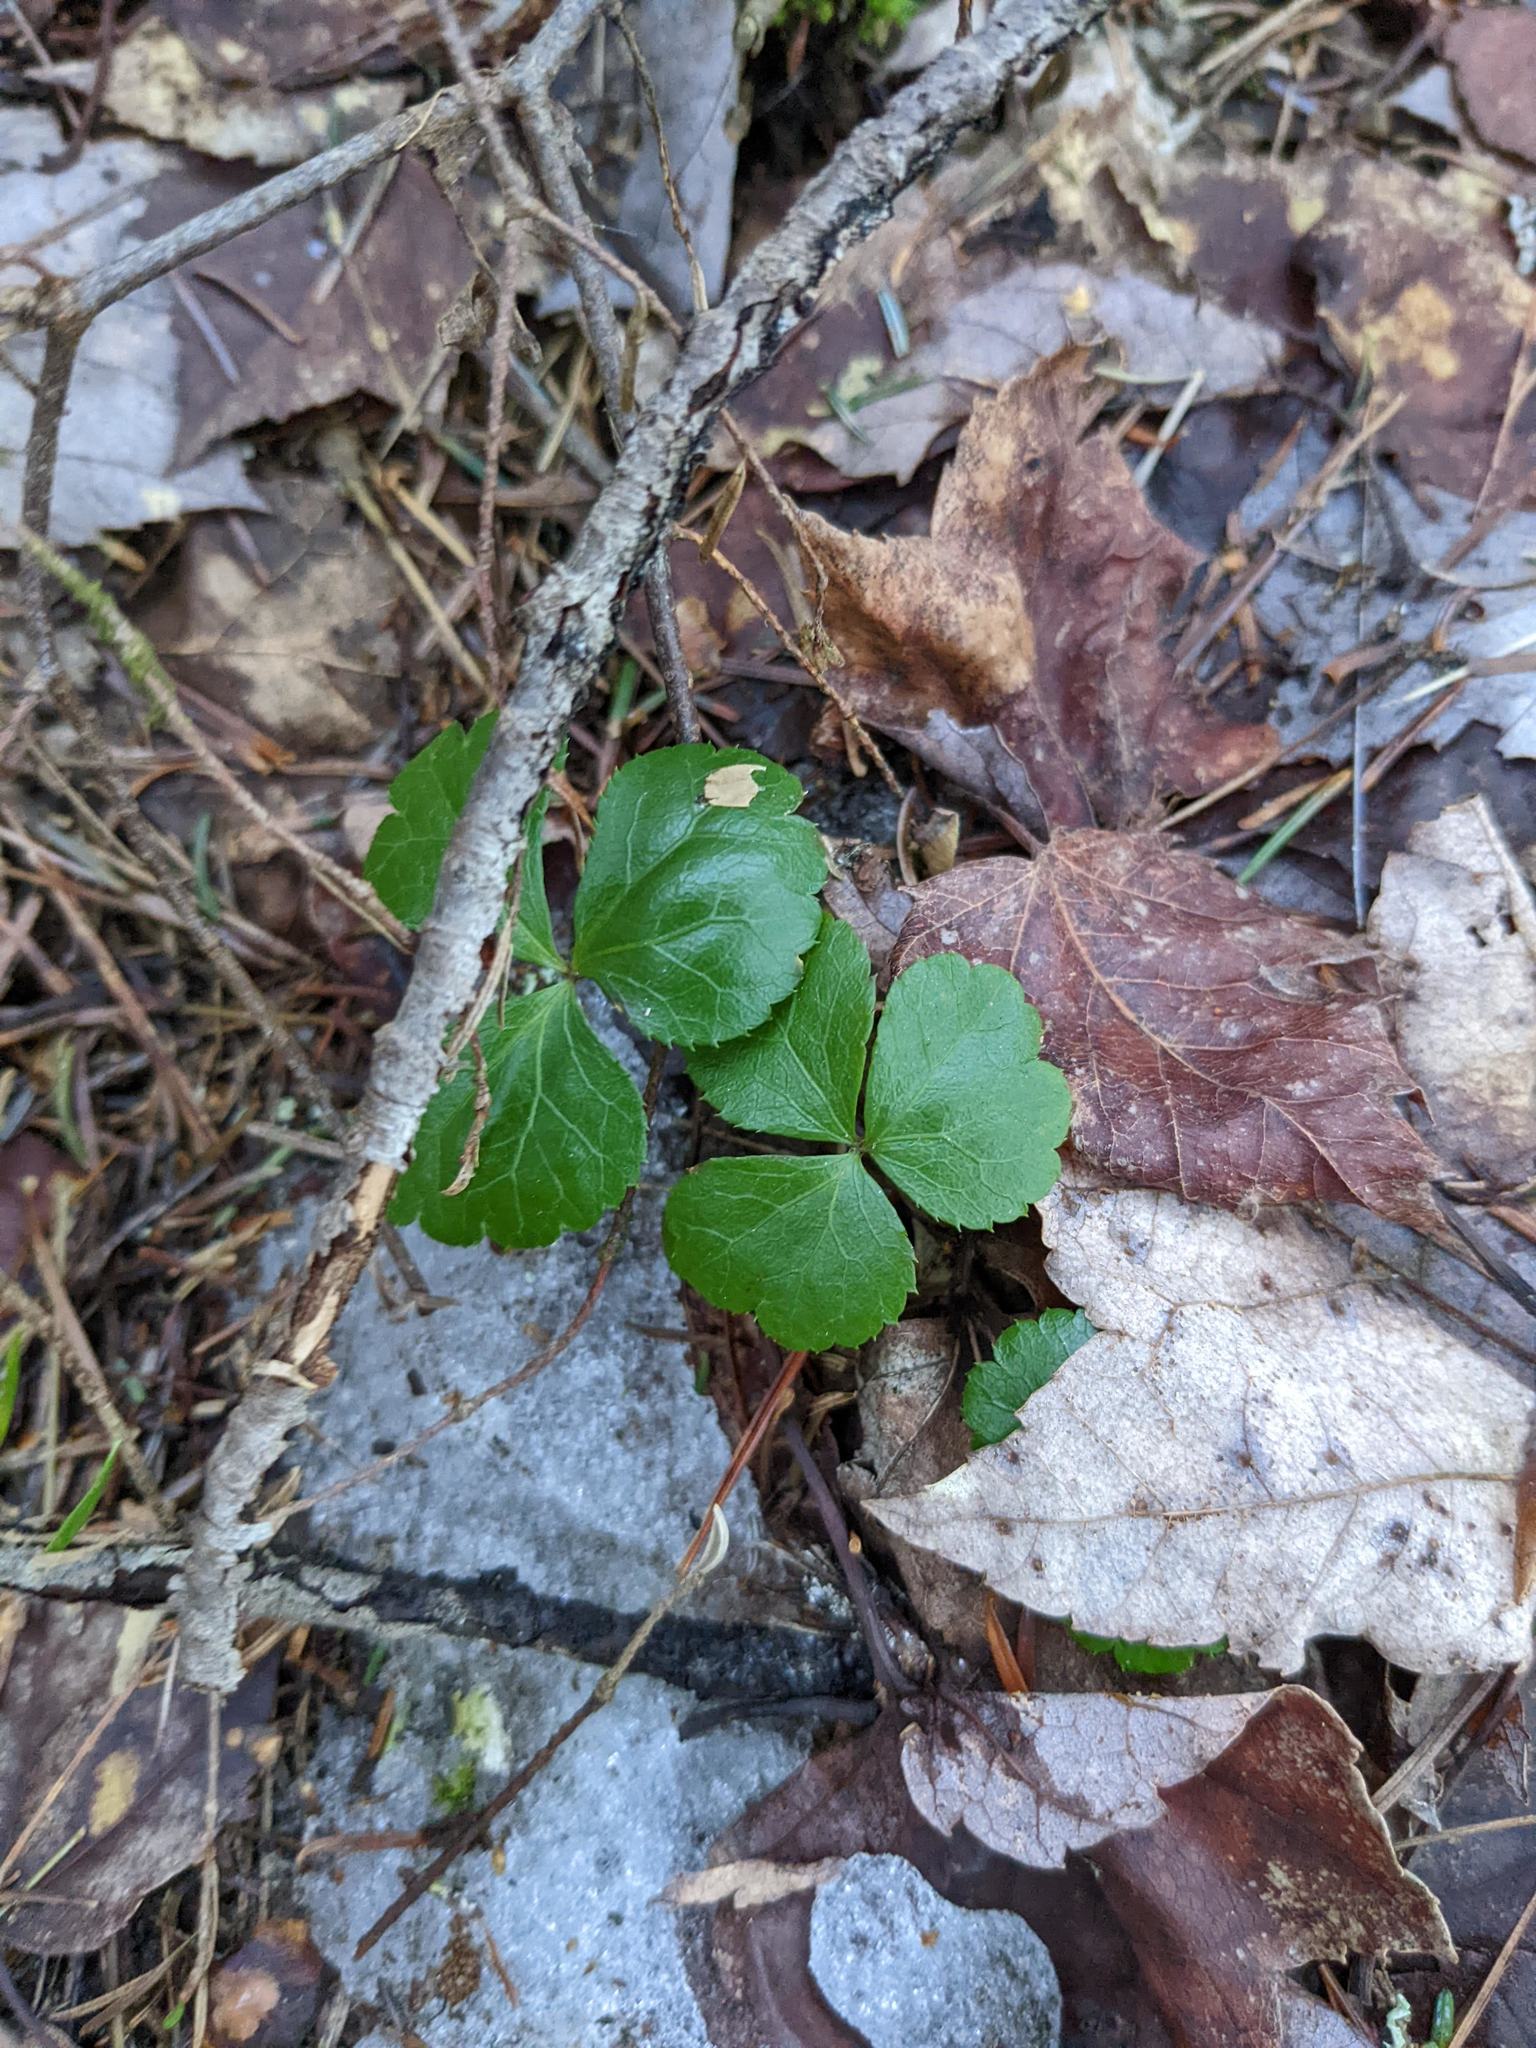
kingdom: Plantae
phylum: Tracheophyta
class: Magnoliopsida
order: Ranunculales
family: Ranunculaceae
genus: Coptis
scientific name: Coptis trifolia
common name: Canker-root
